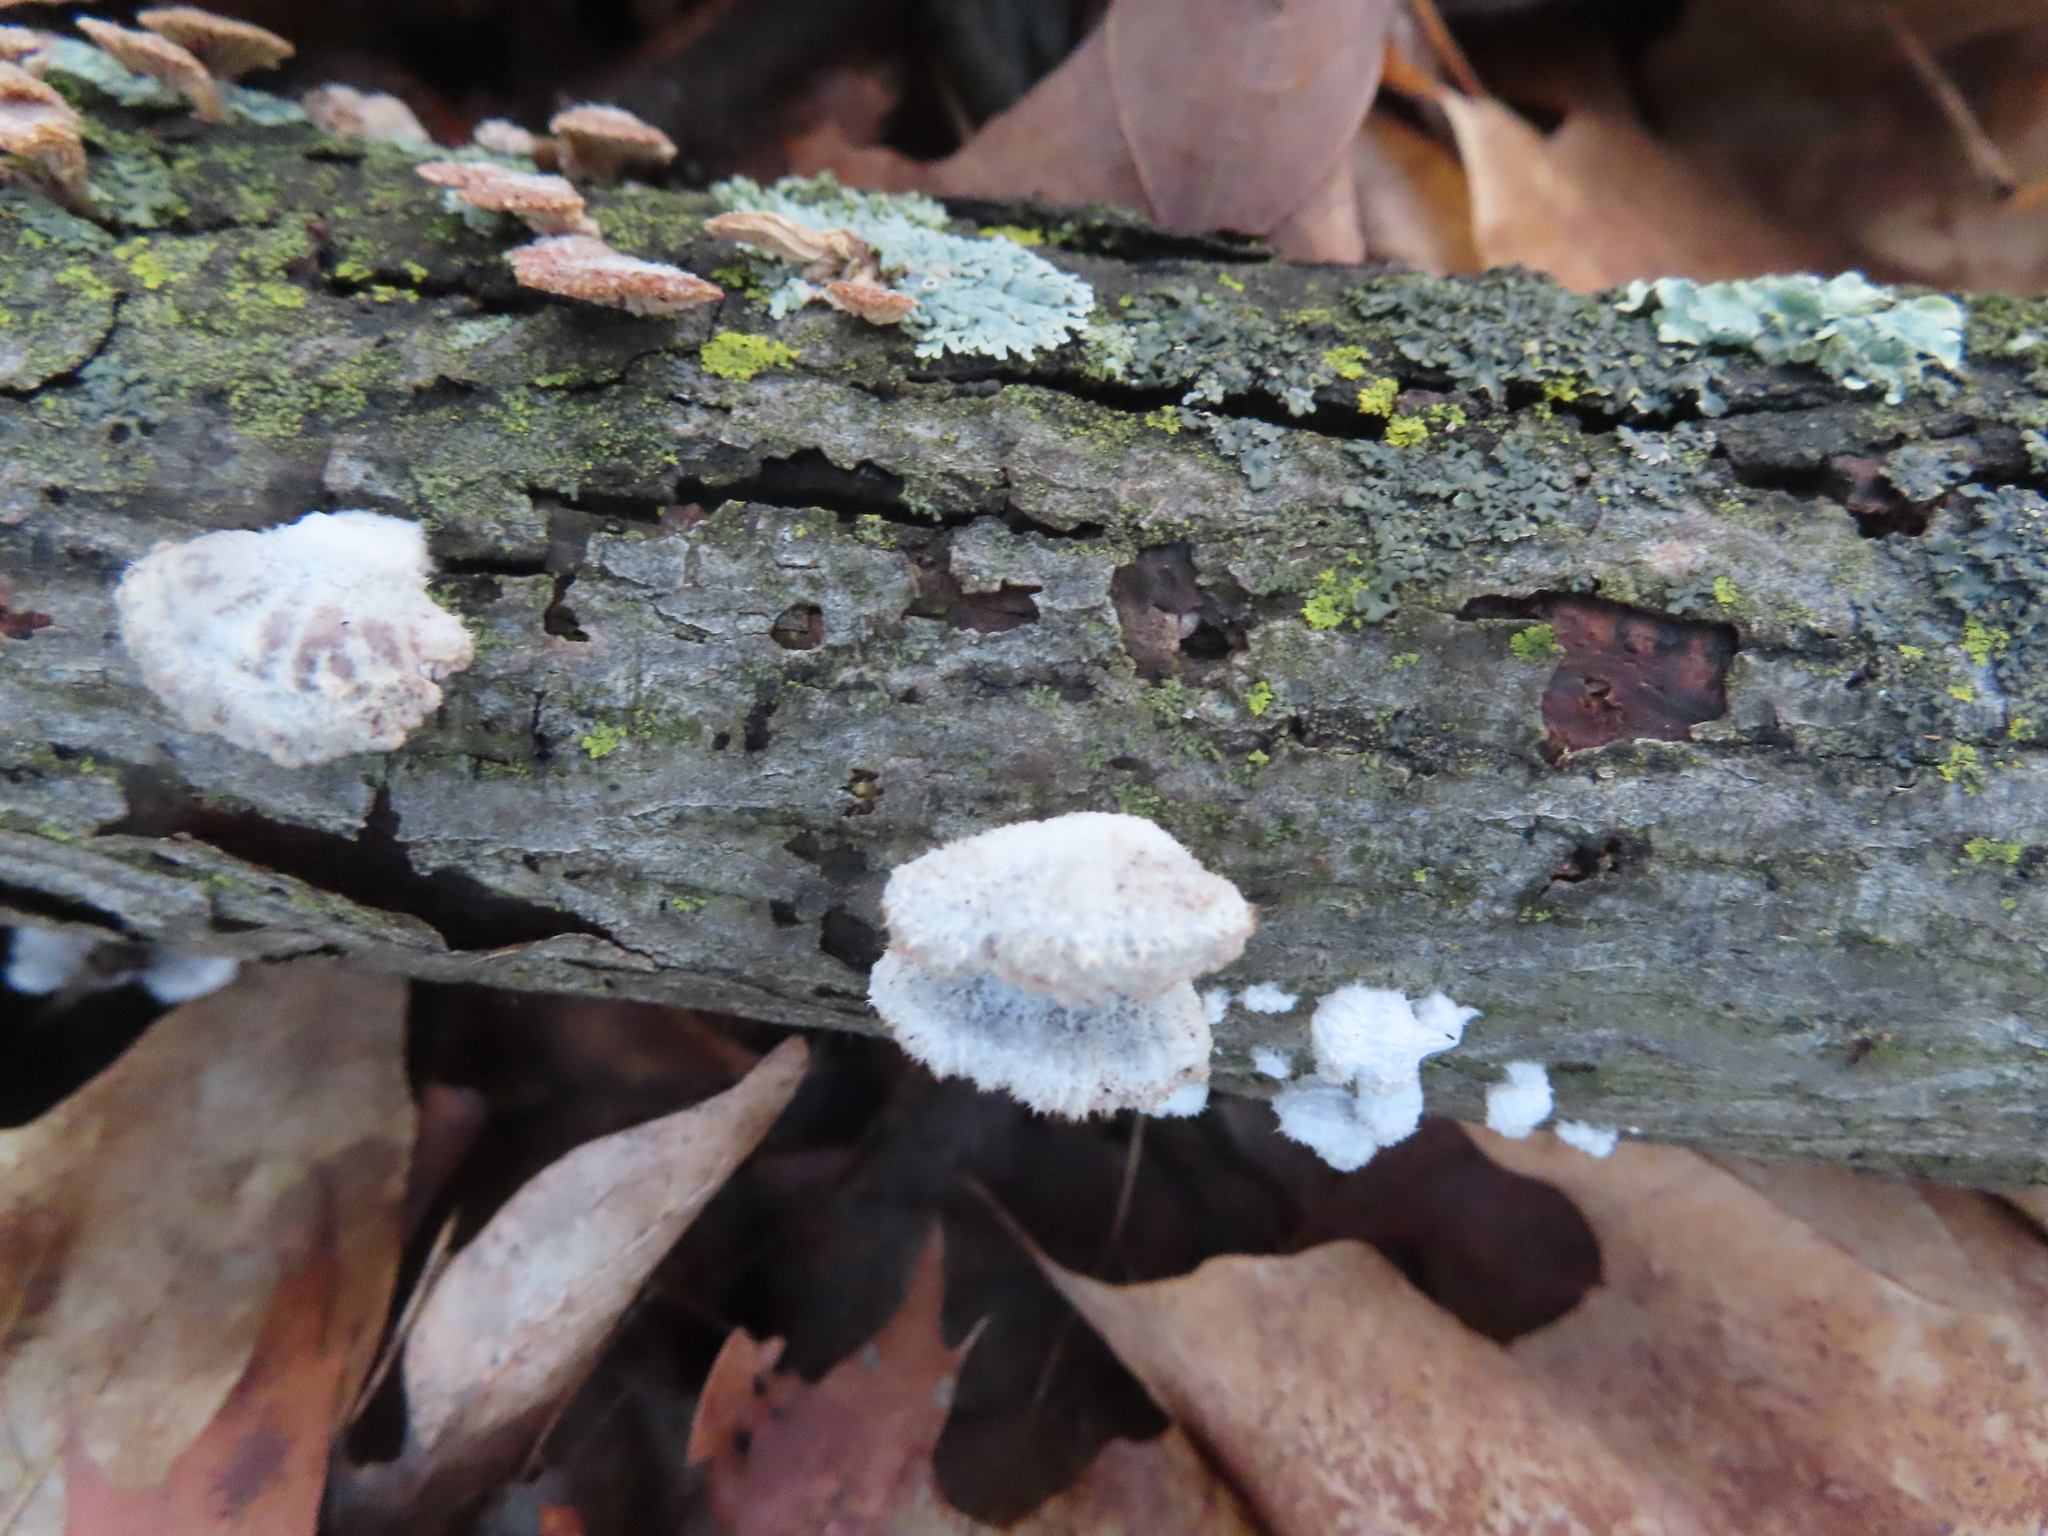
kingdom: Fungi
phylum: Basidiomycota
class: Agaricomycetes
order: Agaricales
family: Schizophyllaceae
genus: Schizophyllum
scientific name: Schizophyllum commune
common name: Common porecrust
